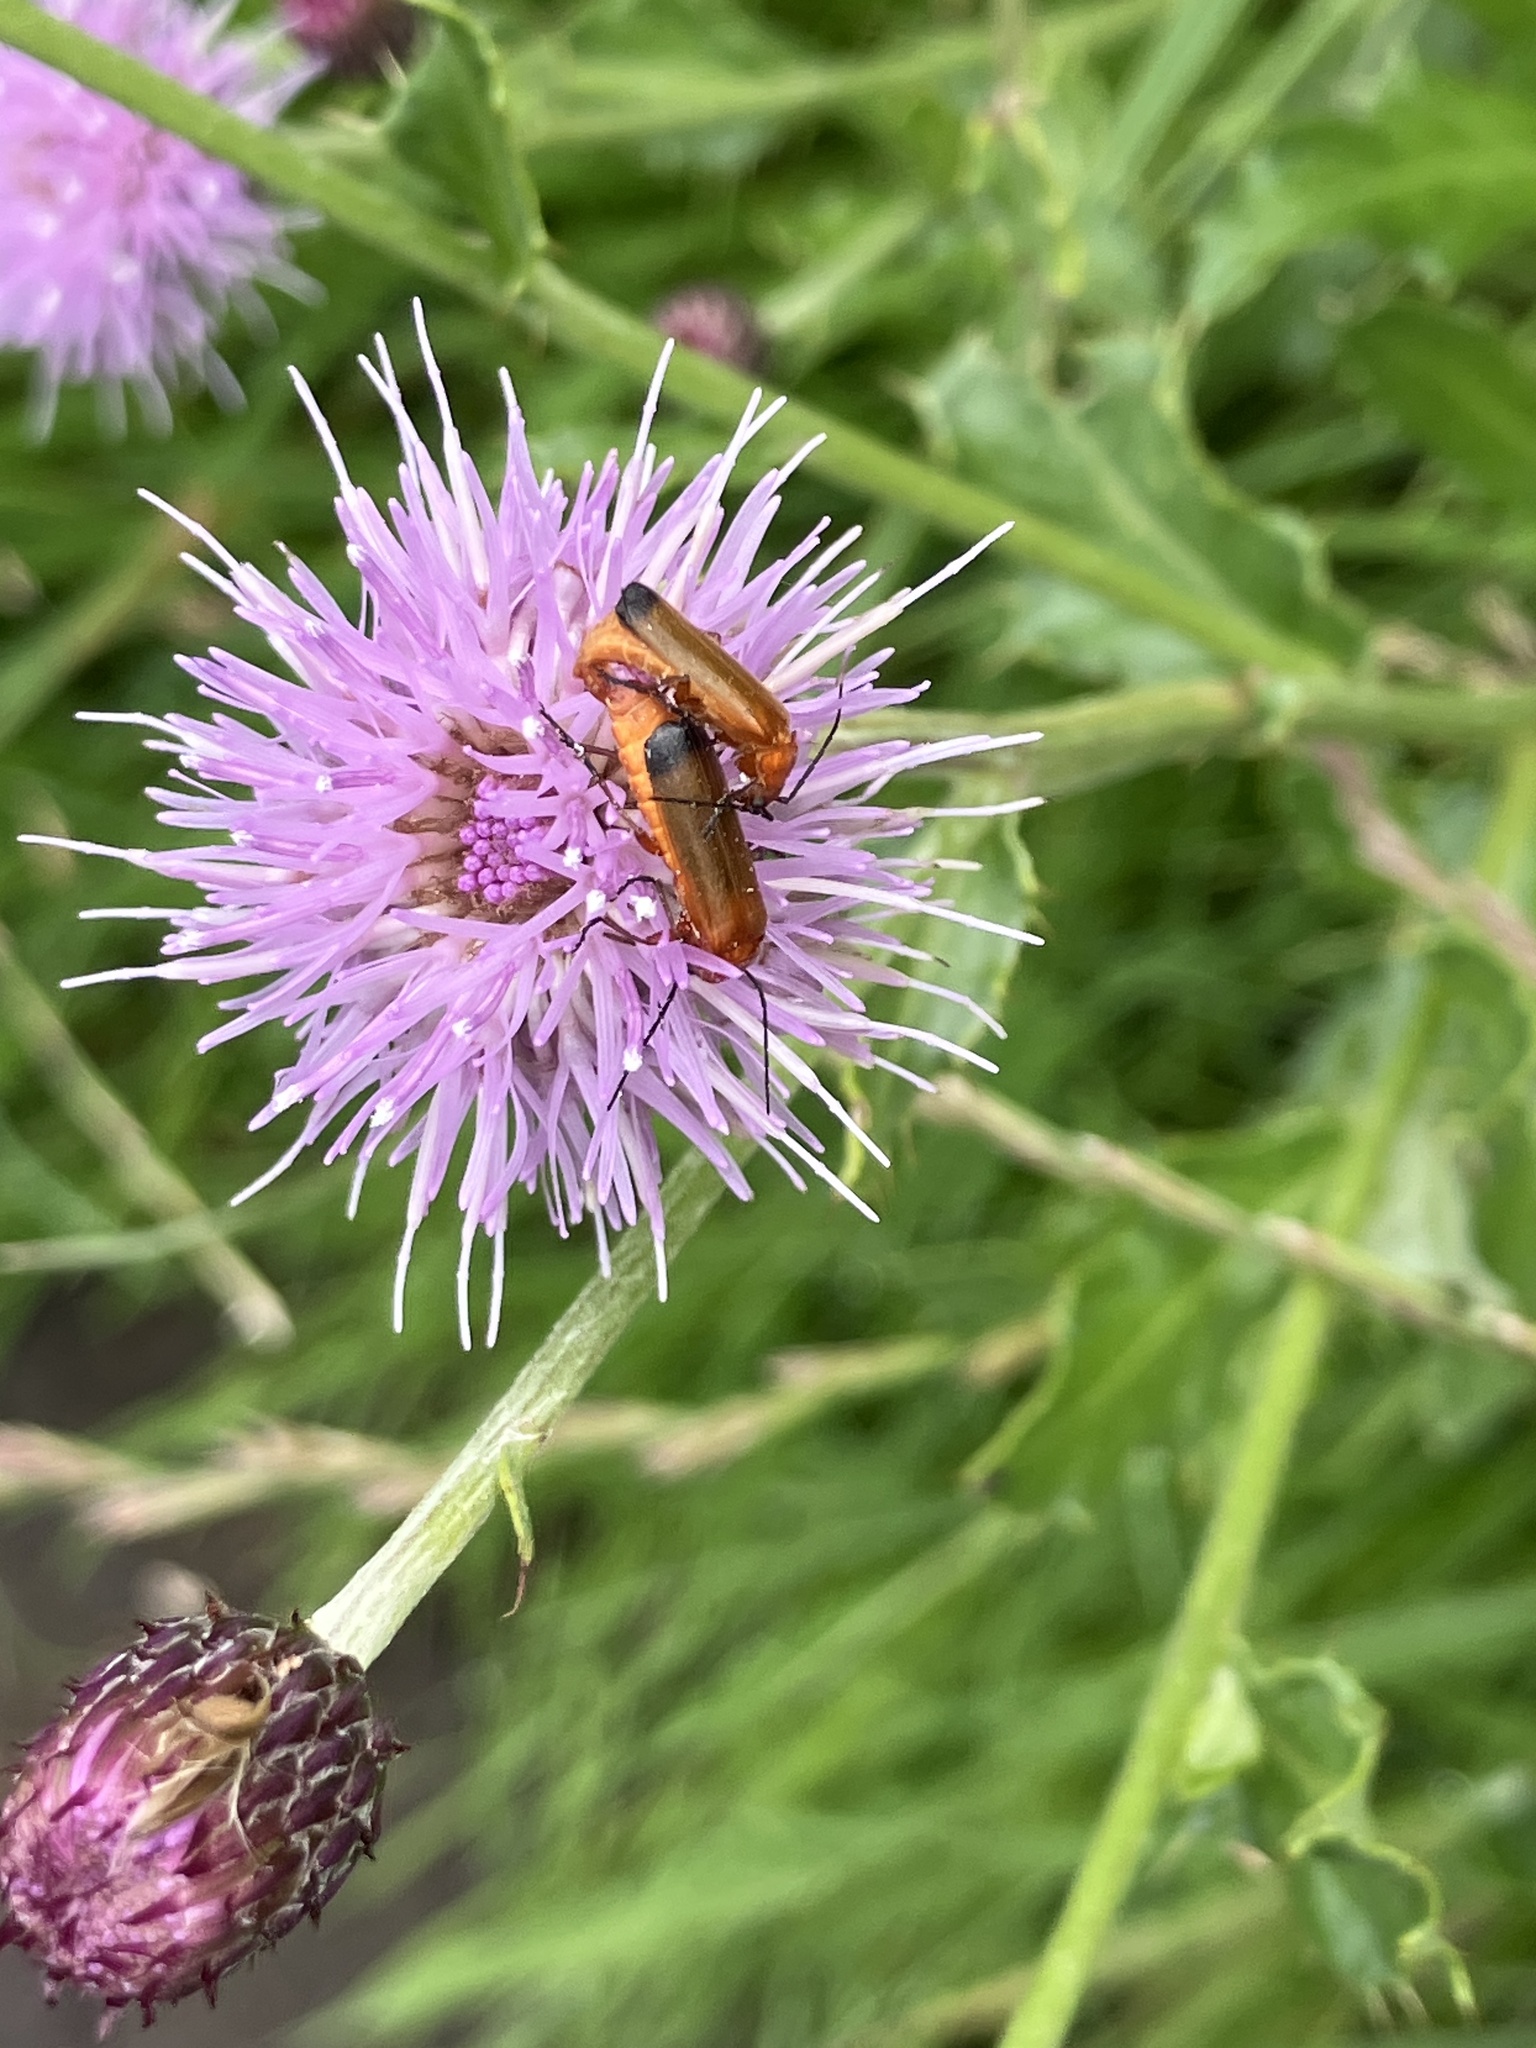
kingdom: Animalia
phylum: Arthropoda
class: Insecta
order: Coleoptera
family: Cantharidae
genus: Rhagonycha
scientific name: Rhagonycha fulva
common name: Common red soldier beetle
